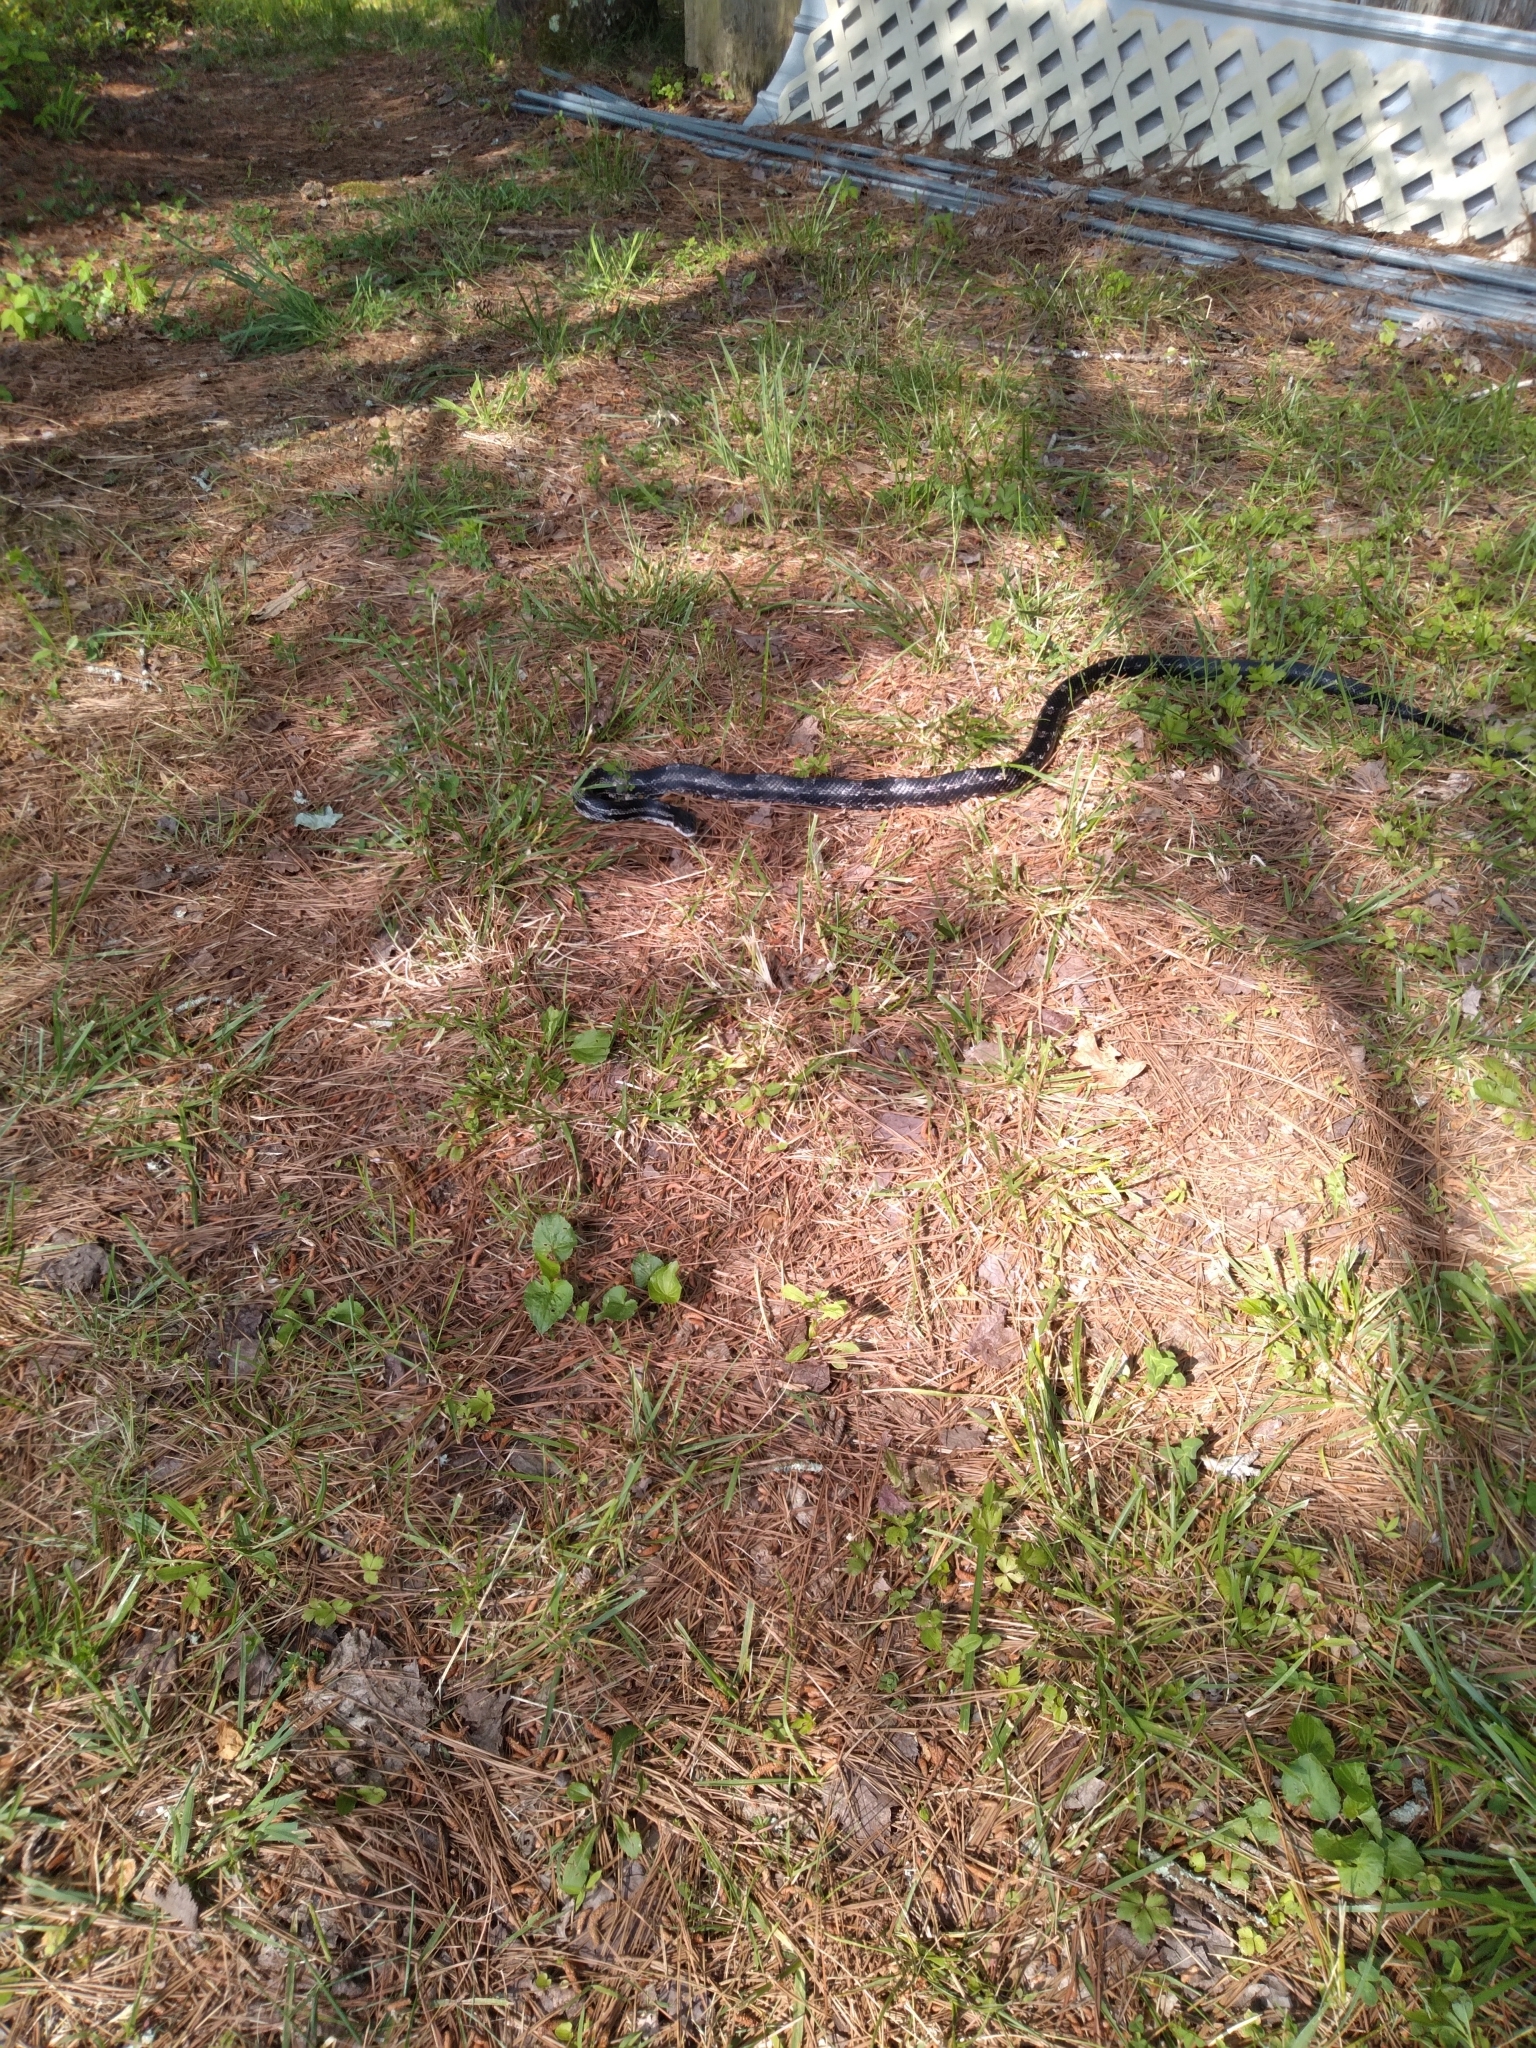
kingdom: Animalia
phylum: Chordata
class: Squamata
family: Colubridae
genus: Pantherophis
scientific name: Pantherophis spiloides
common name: Gray rat snake
